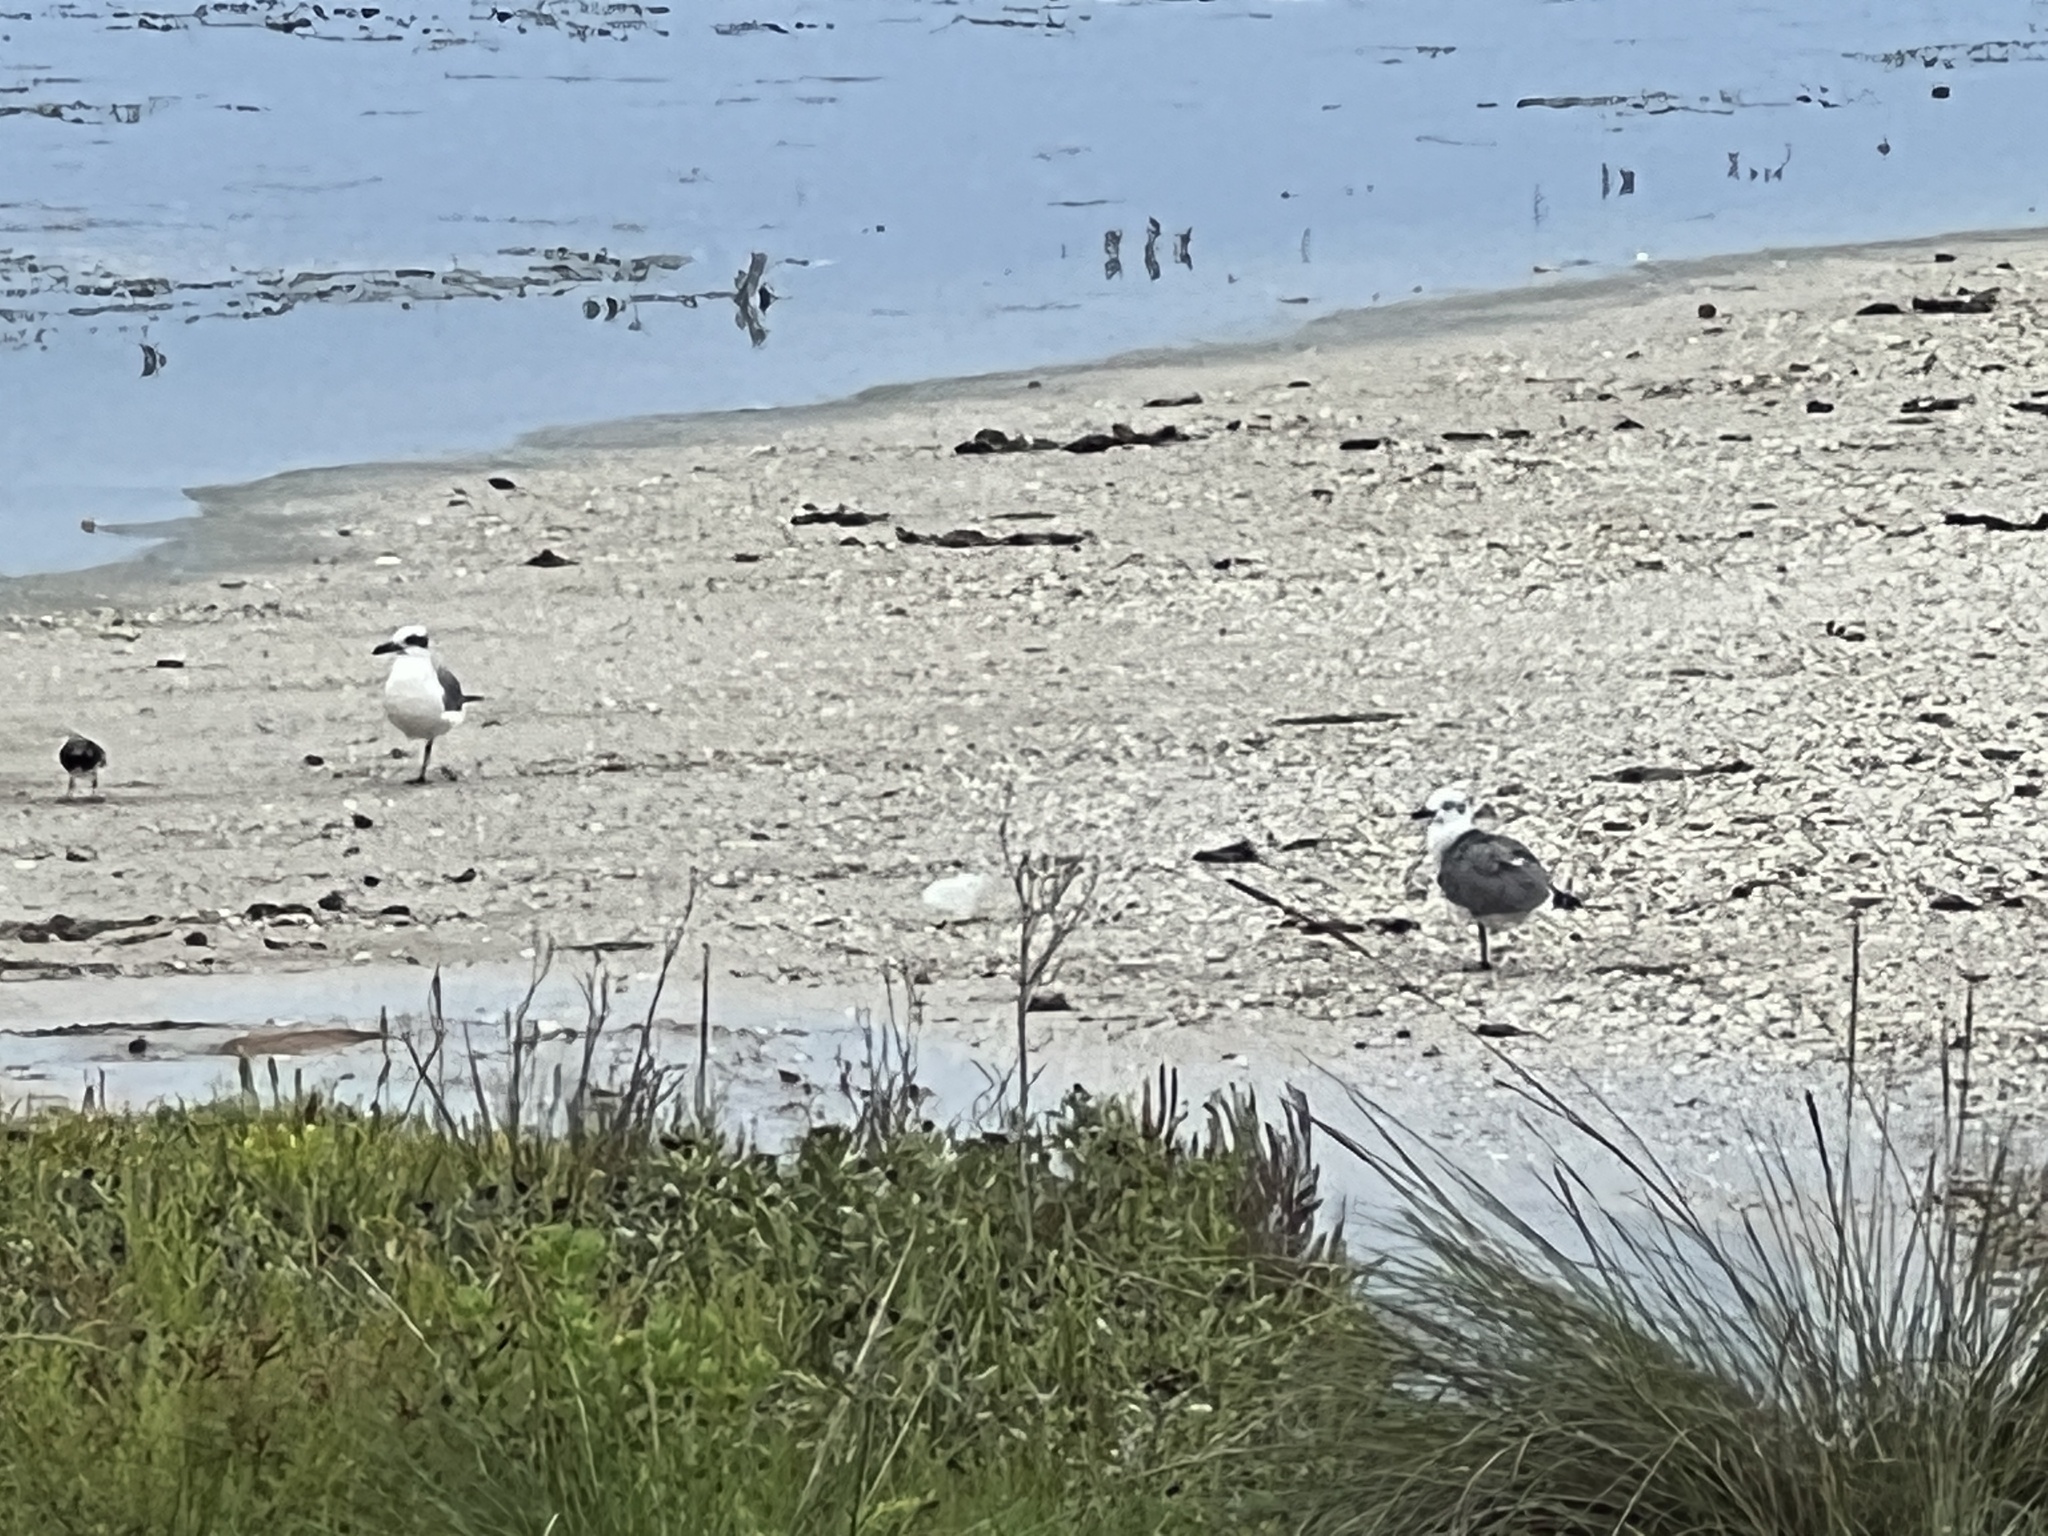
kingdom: Animalia
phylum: Chordata
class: Aves
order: Charadriiformes
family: Laridae
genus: Leucophaeus
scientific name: Leucophaeus atricilla
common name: Laughing gull
